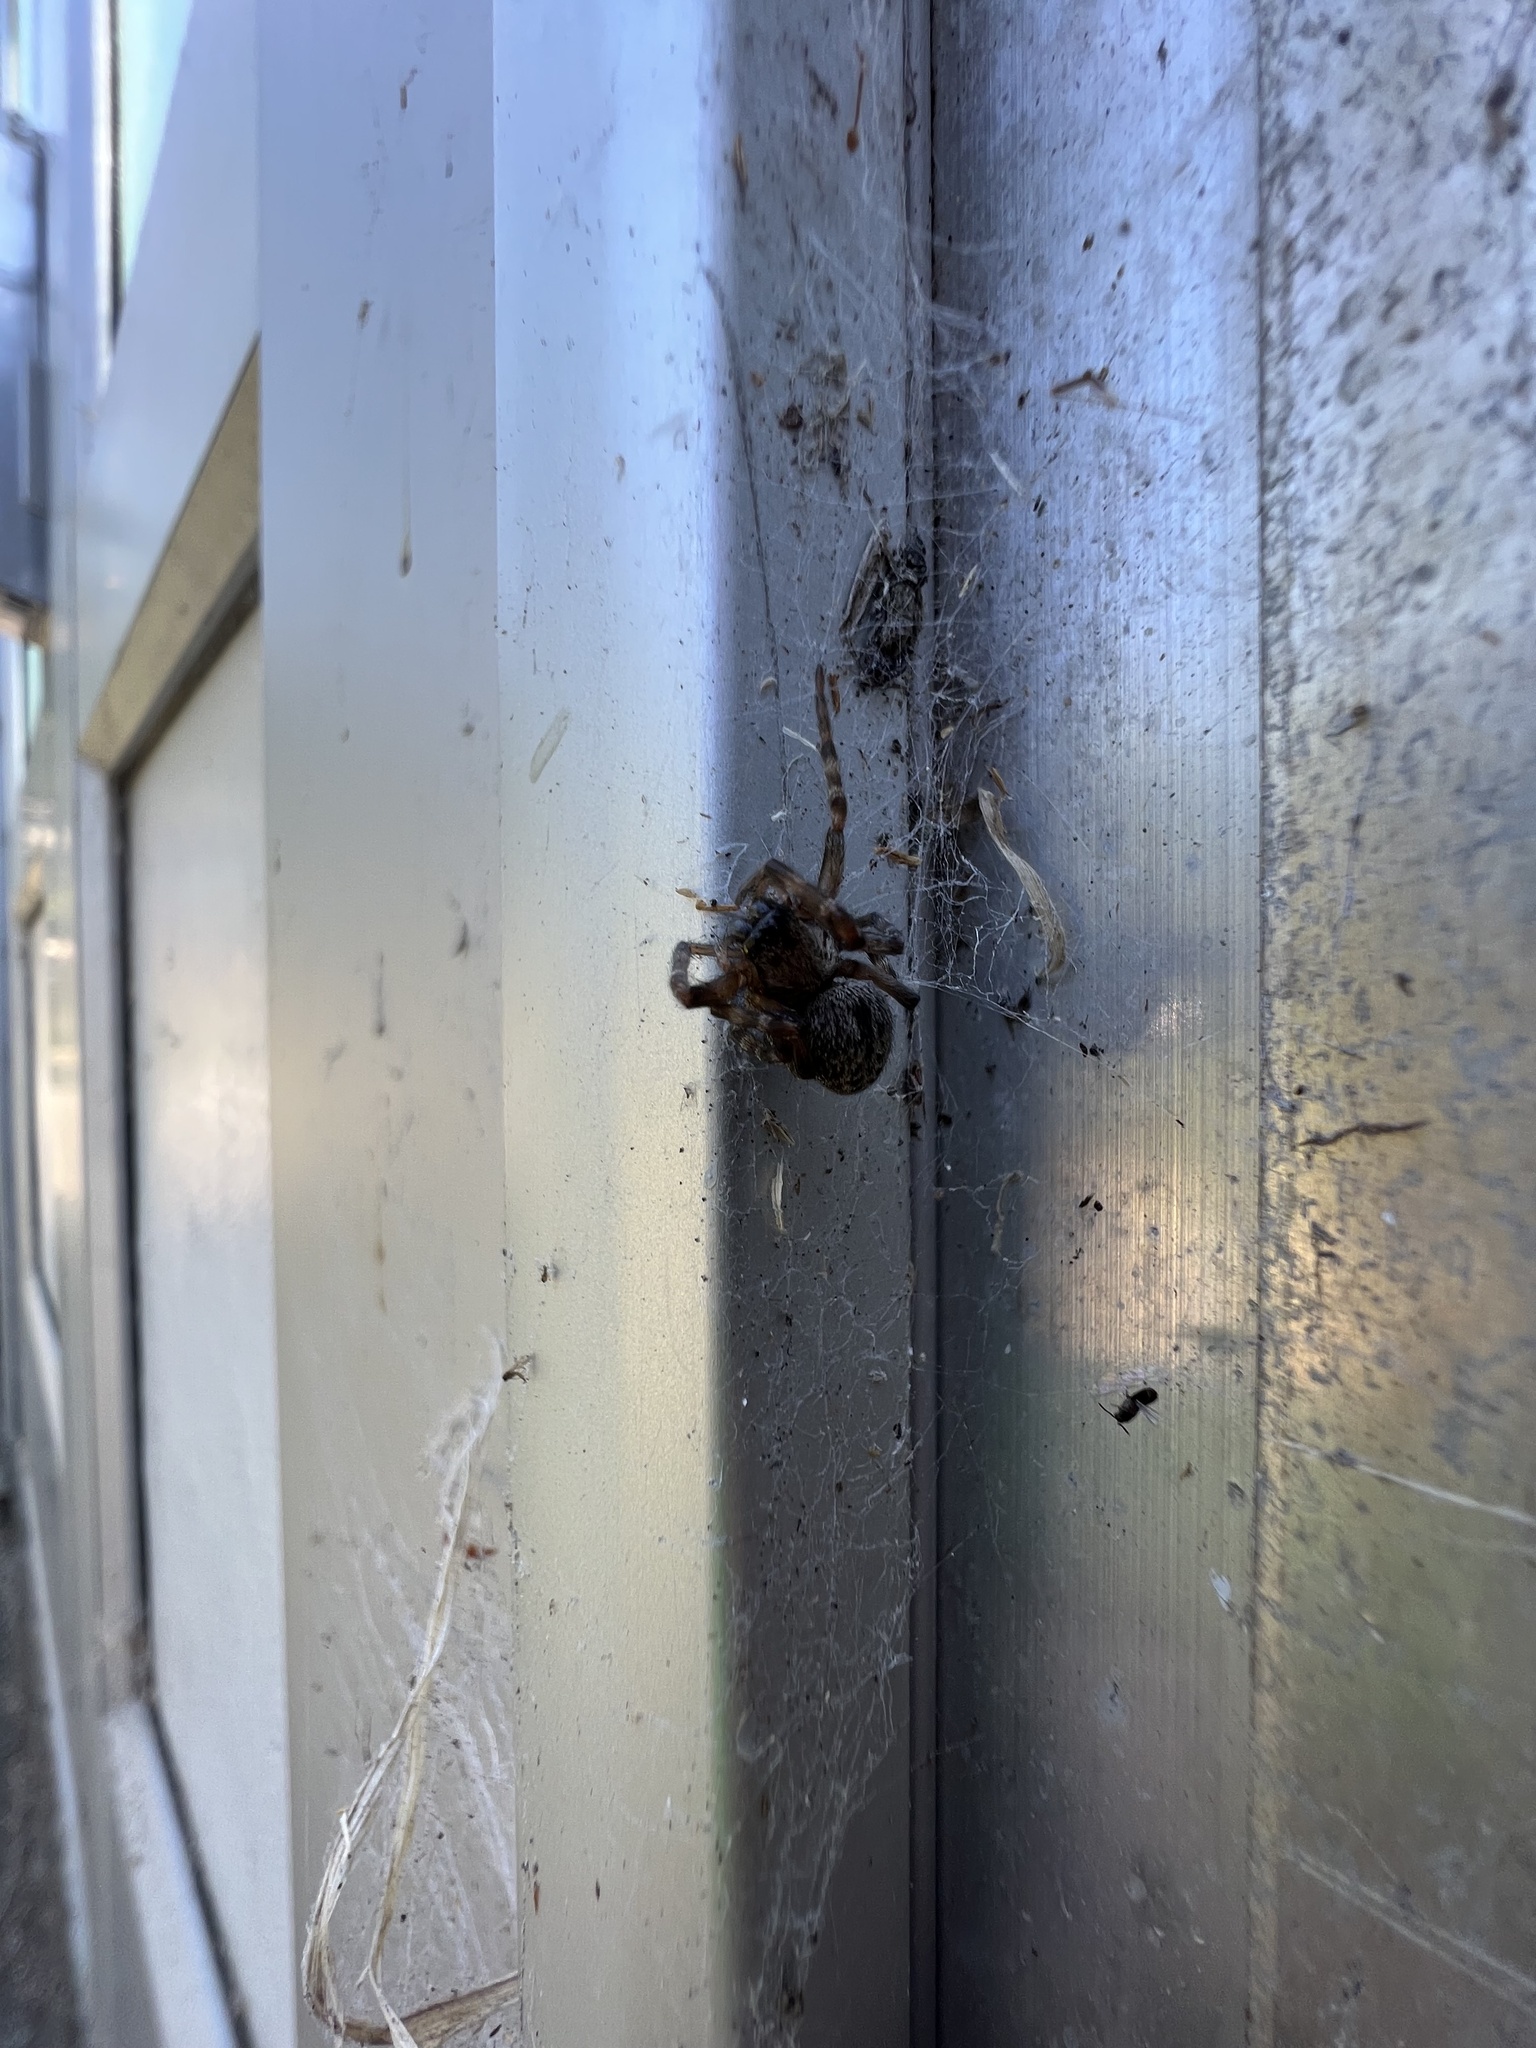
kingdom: Animalia
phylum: Arthropoda
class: Arachnida
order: Araneae
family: Desidae
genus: Badumna
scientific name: Badumna longinqua
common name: Gray house spider
